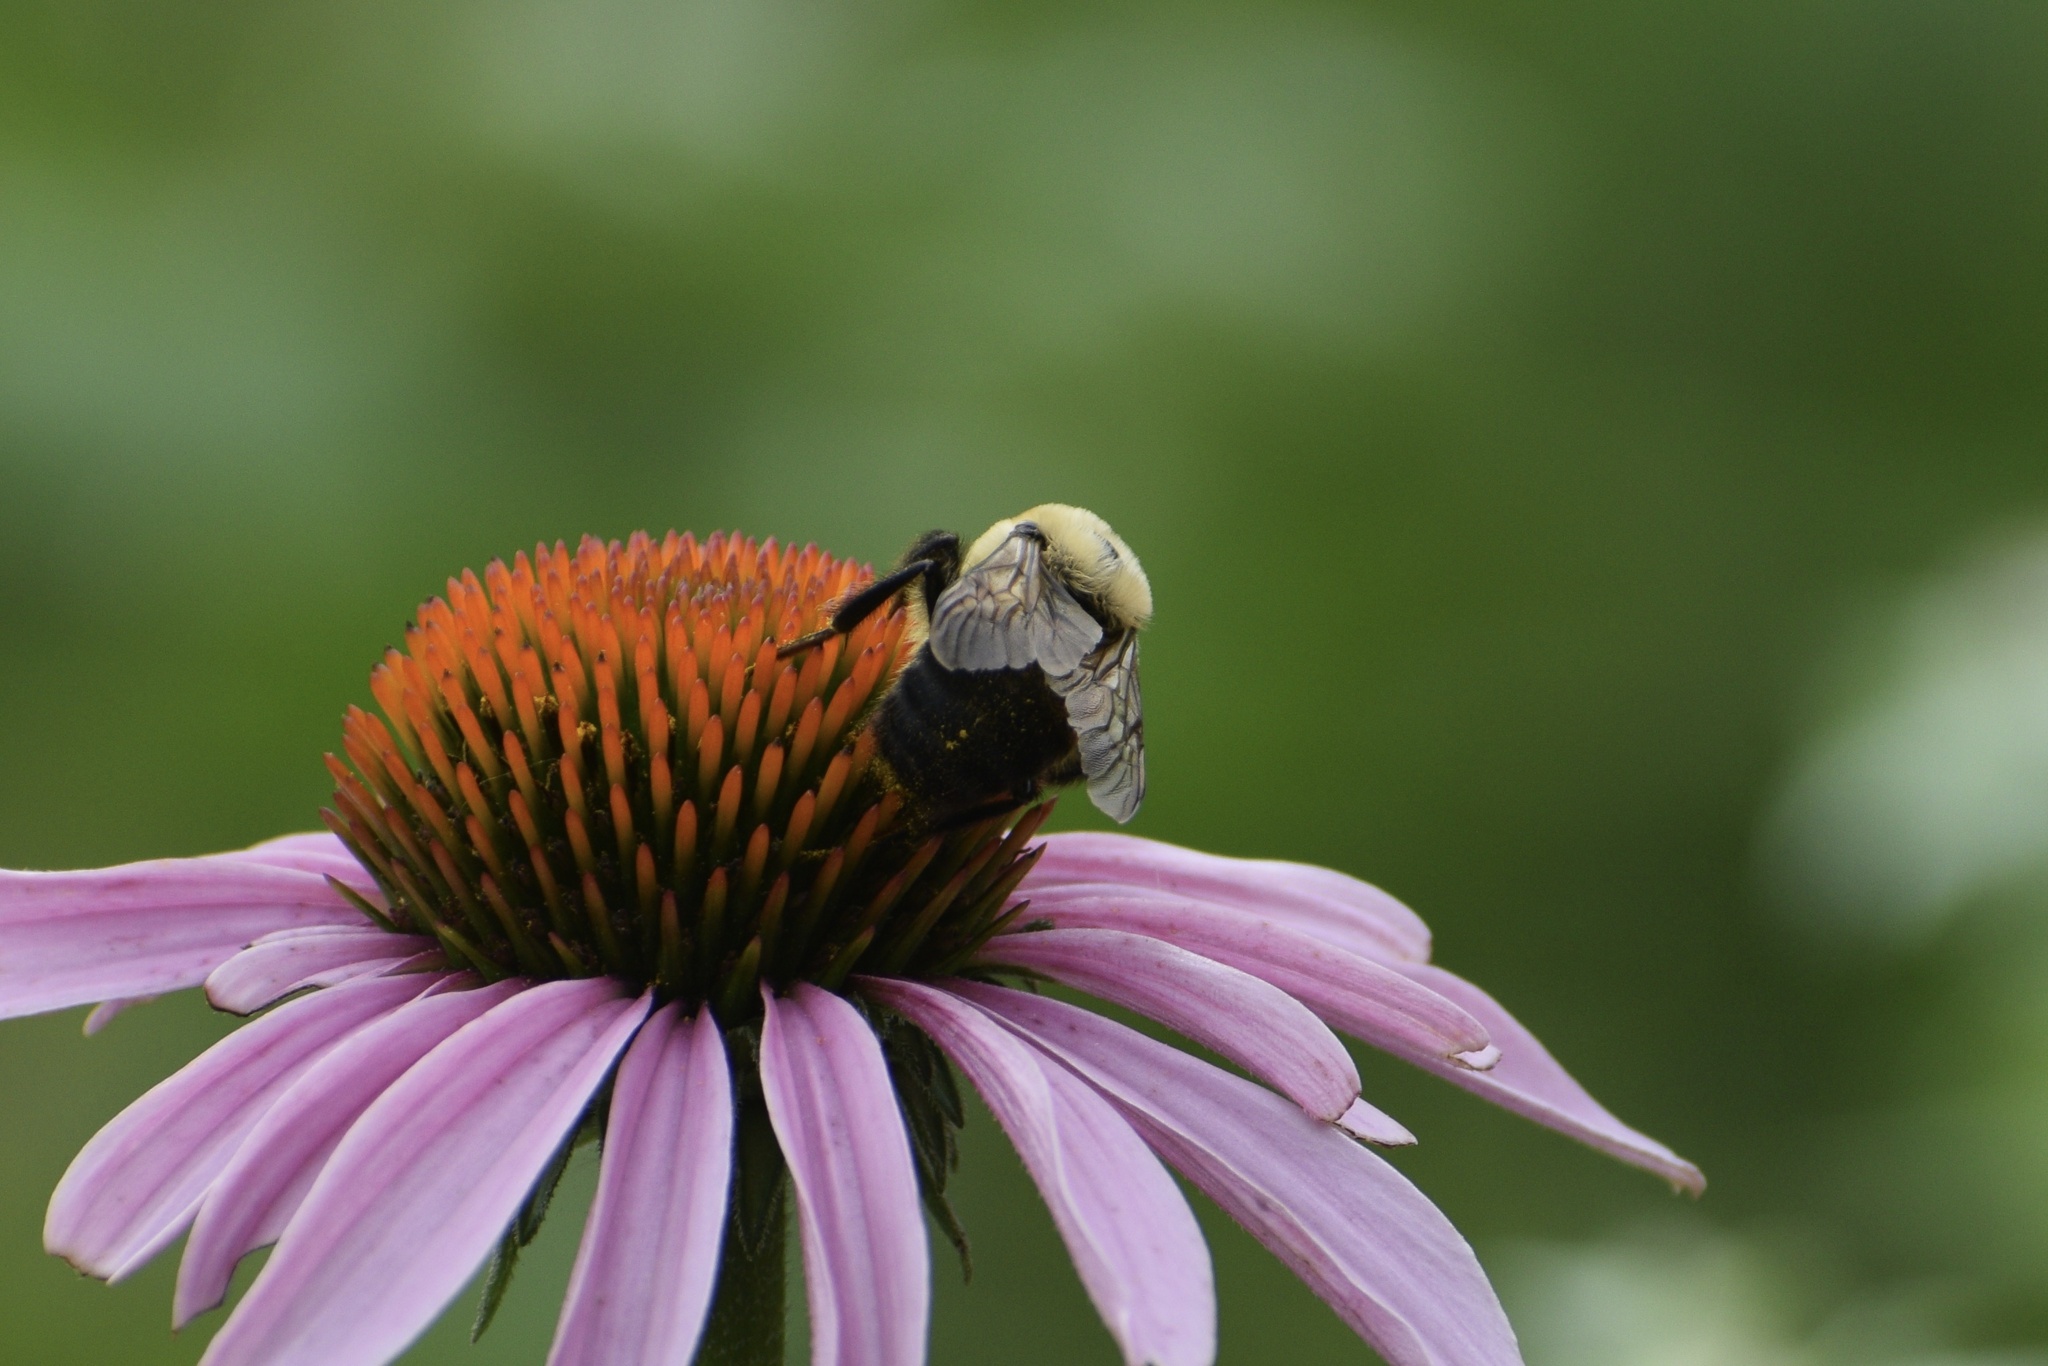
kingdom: Animalia
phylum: Arthropoda
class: Insecta
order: Hymenoptera
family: Apidae
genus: Bombus
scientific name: Bombus griseocollis
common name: Brown-belted bumble bee
